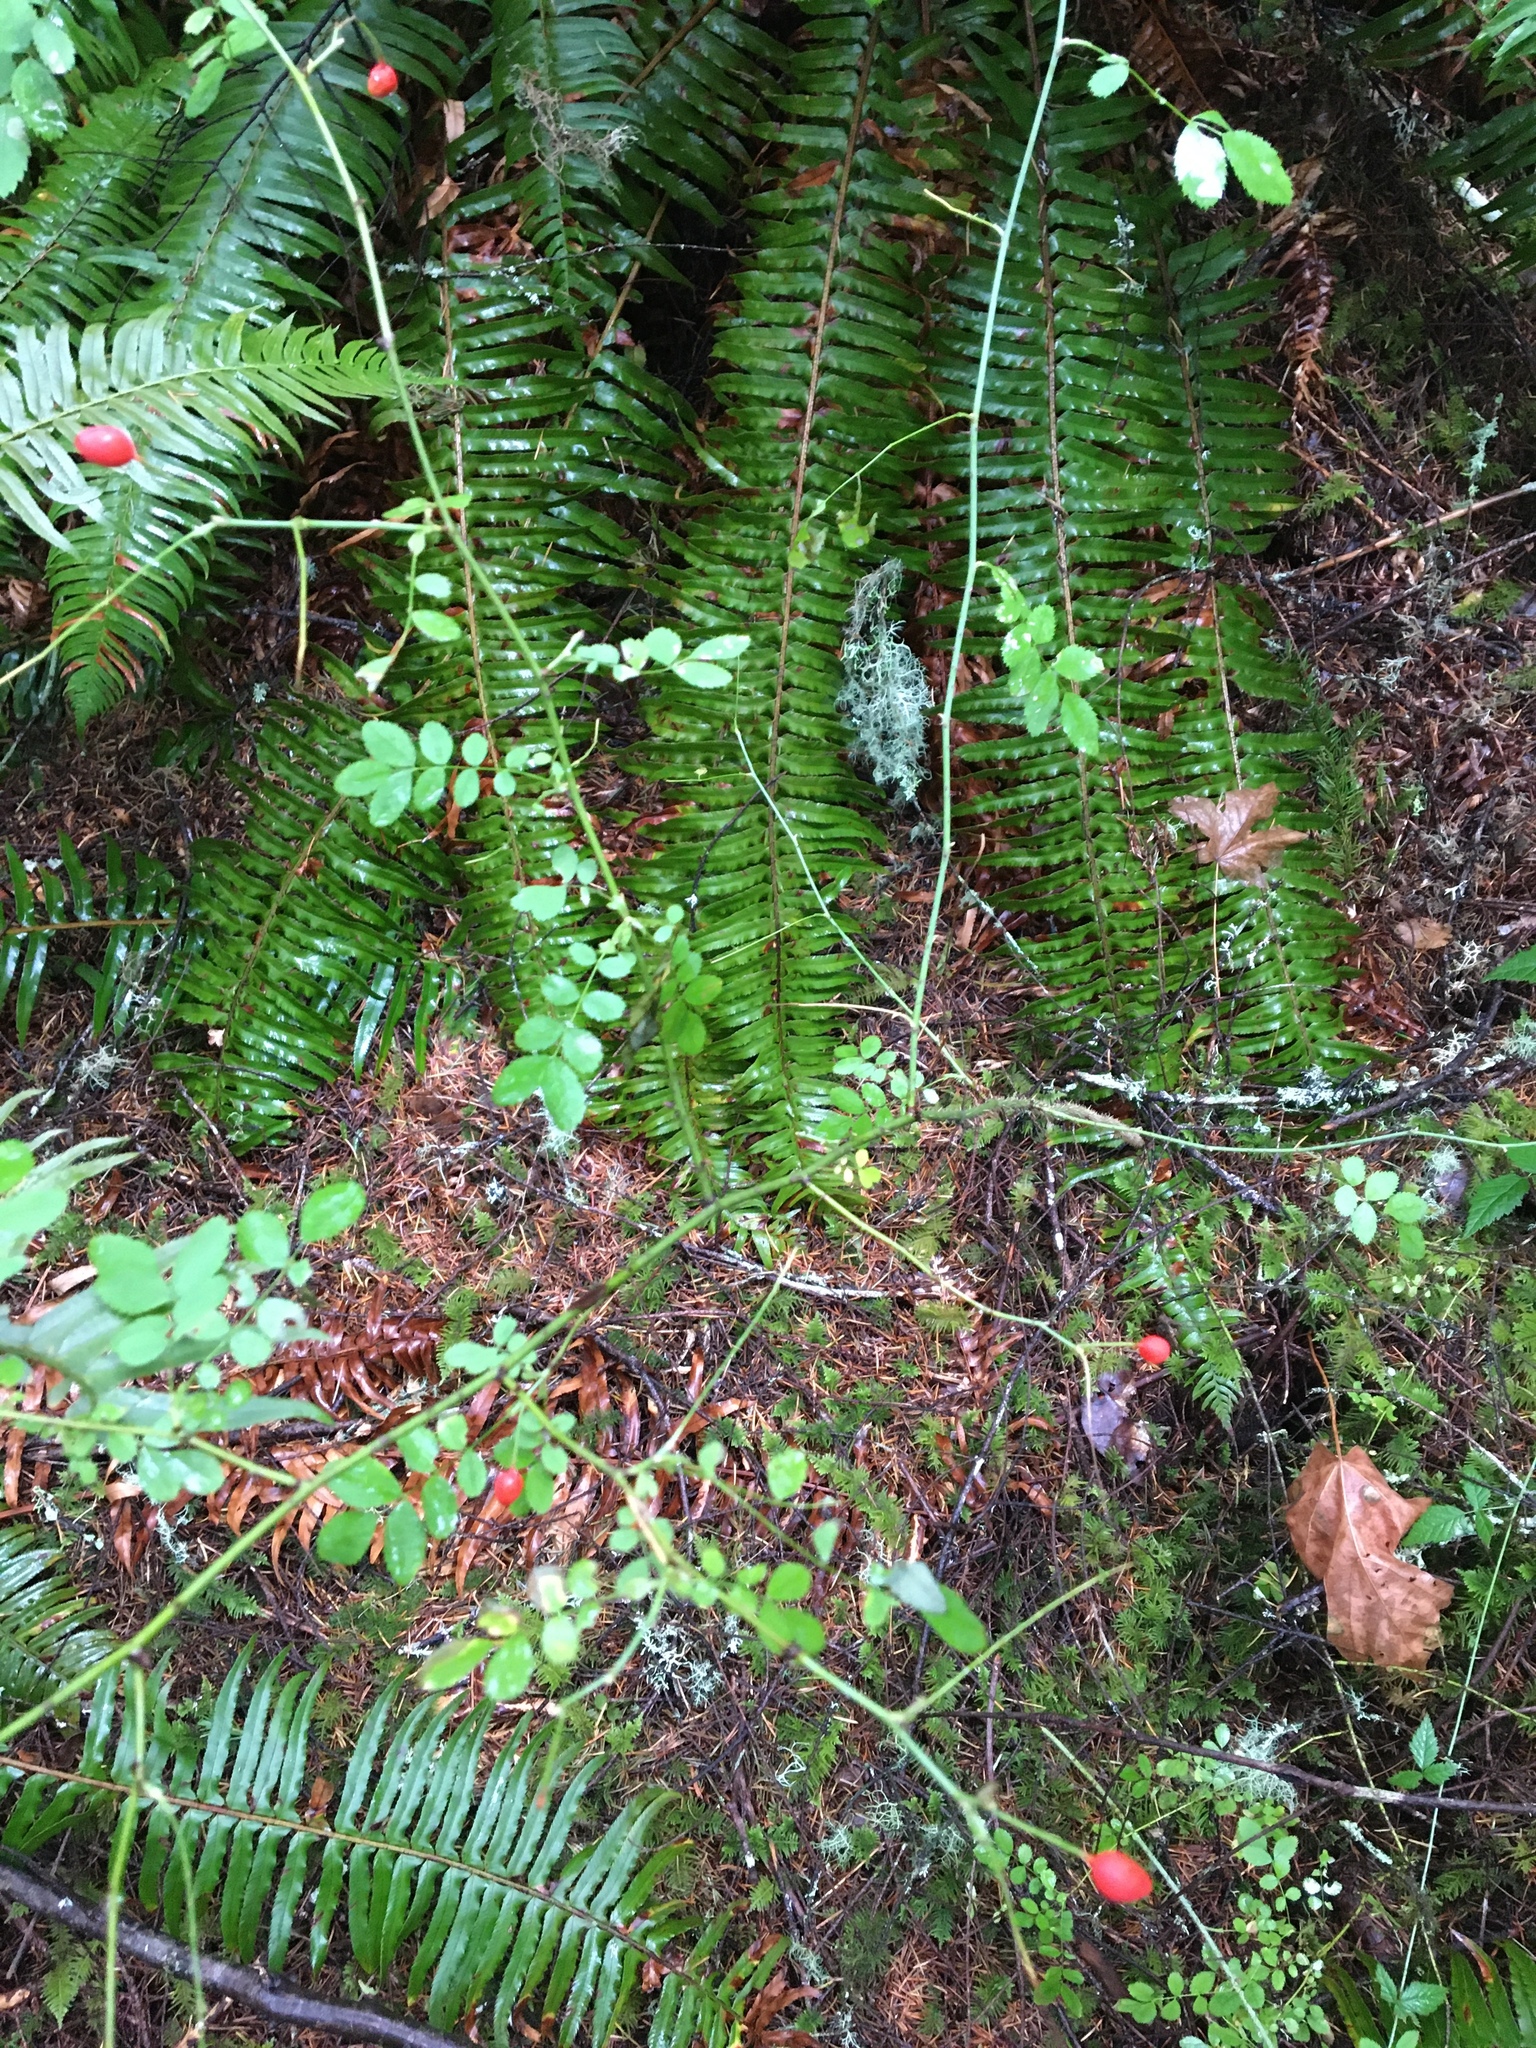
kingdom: Plantae
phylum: Tracheophyta
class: Magnoliopsida
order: Rosales
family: Rosaceae
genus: Rosa
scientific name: Rosa gymnocarpa
